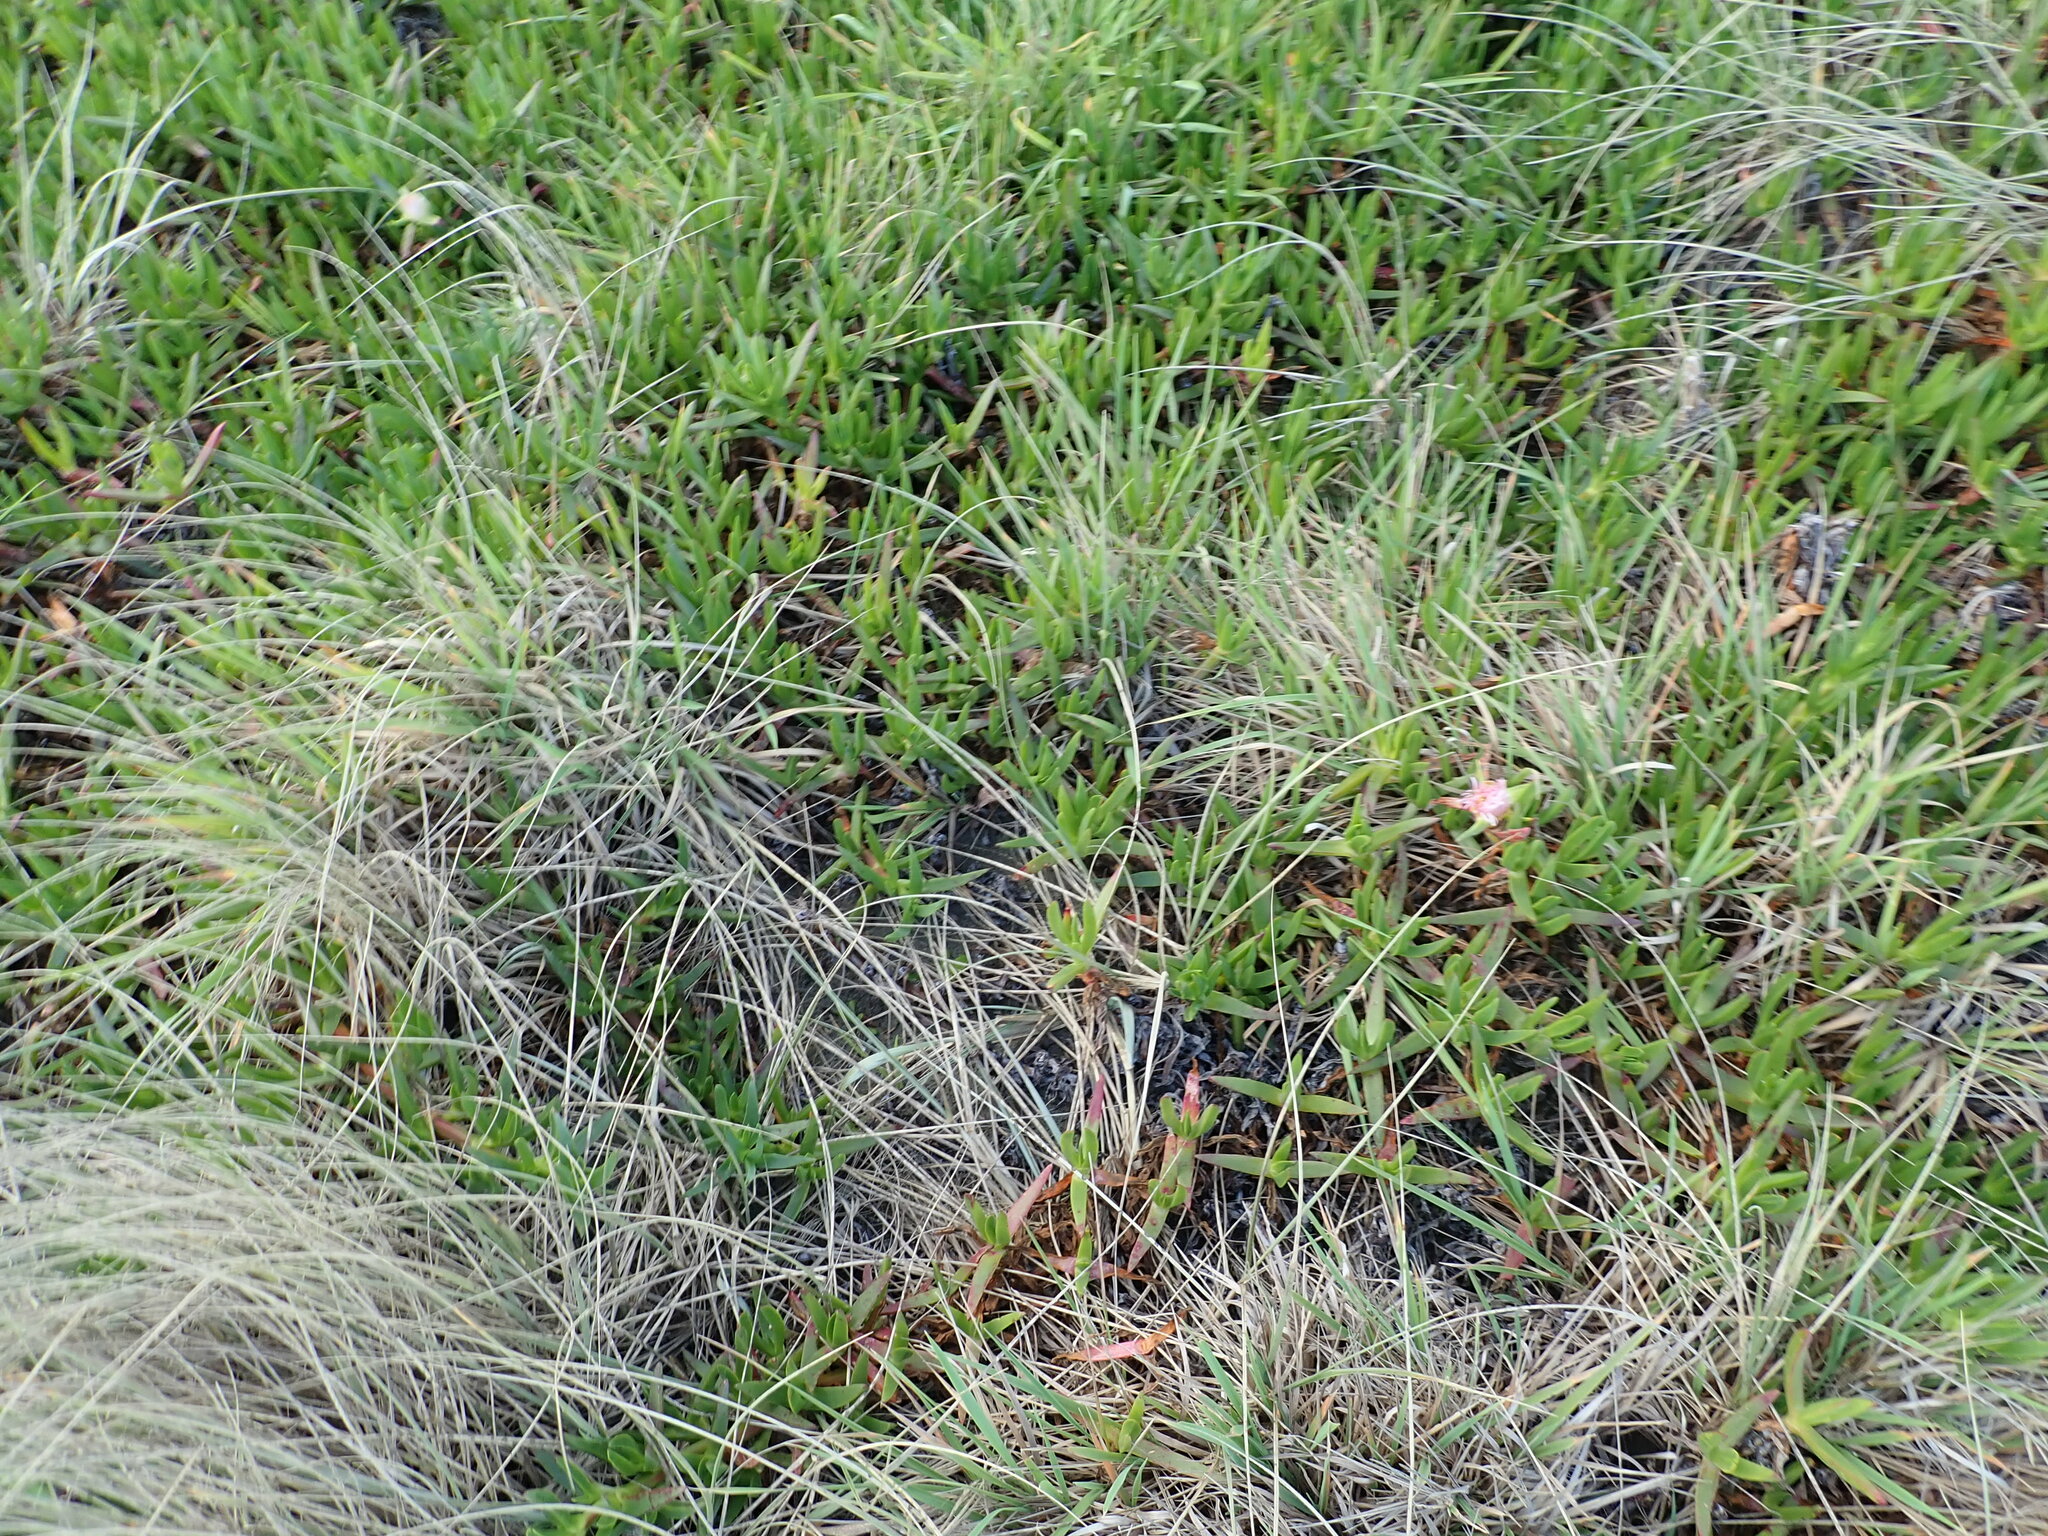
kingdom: Plantae
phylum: Tracheophyta
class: Magnoliopsida
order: Caryophyllales
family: Aizoaceae
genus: Carpobrotus
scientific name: Carpobrotus edulis
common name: Hottentot-fig
